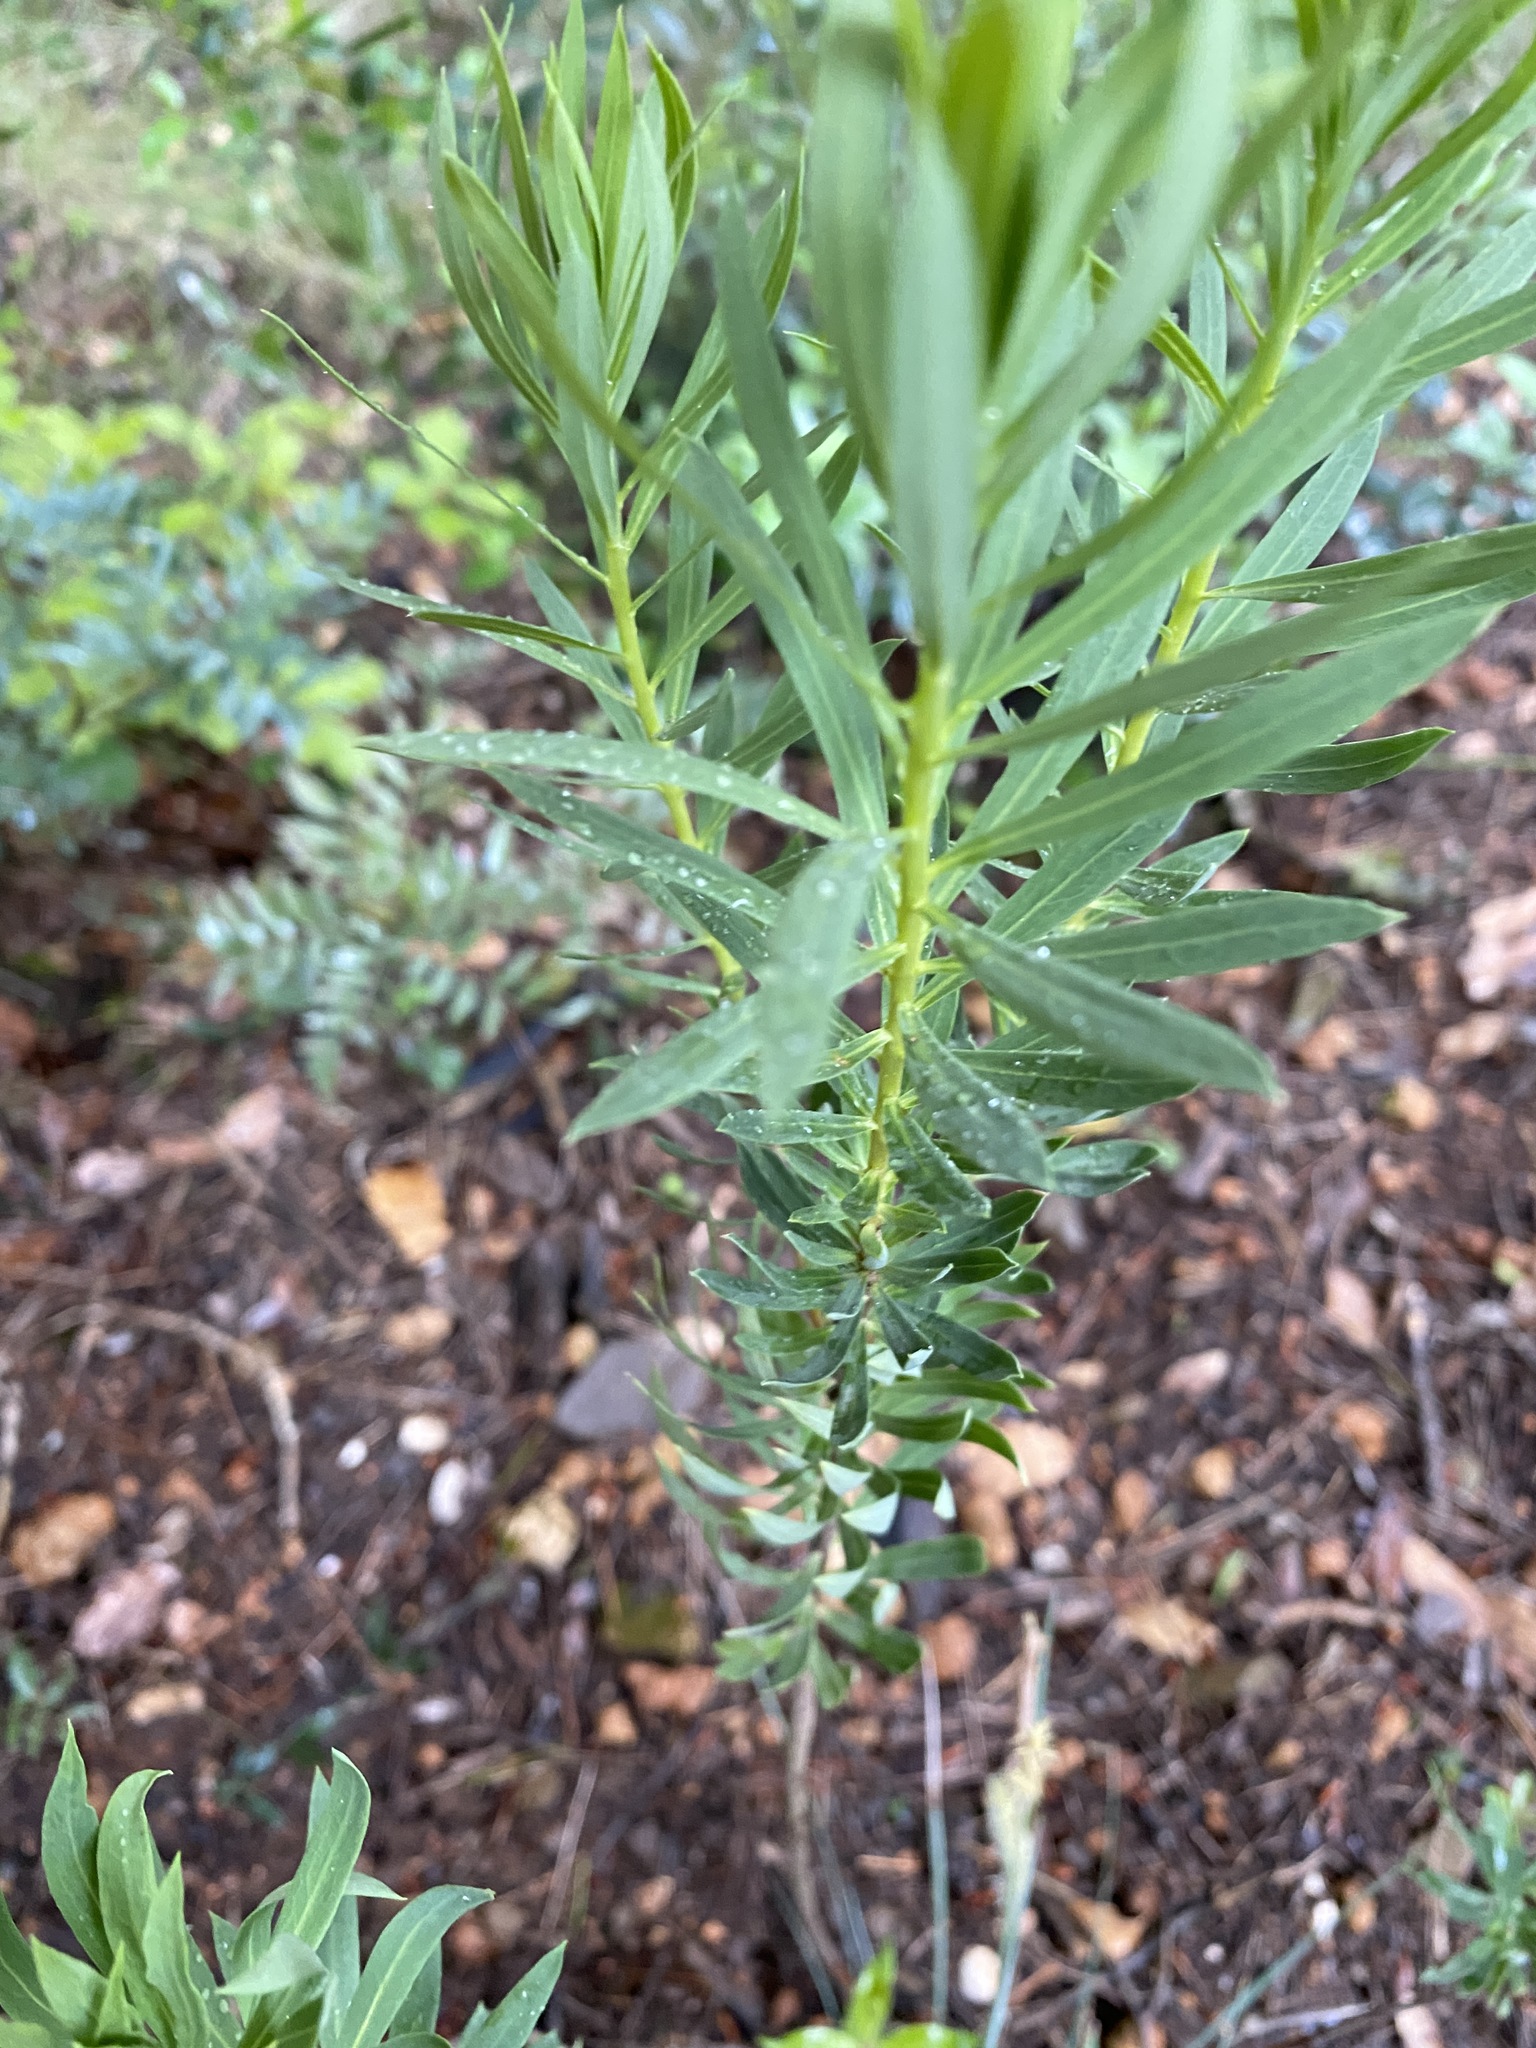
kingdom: Plantae
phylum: Tracheophyta
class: Magnoliopsida
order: Malvales
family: Thymelaeaceae
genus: Daphne
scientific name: Daphne gnidium
